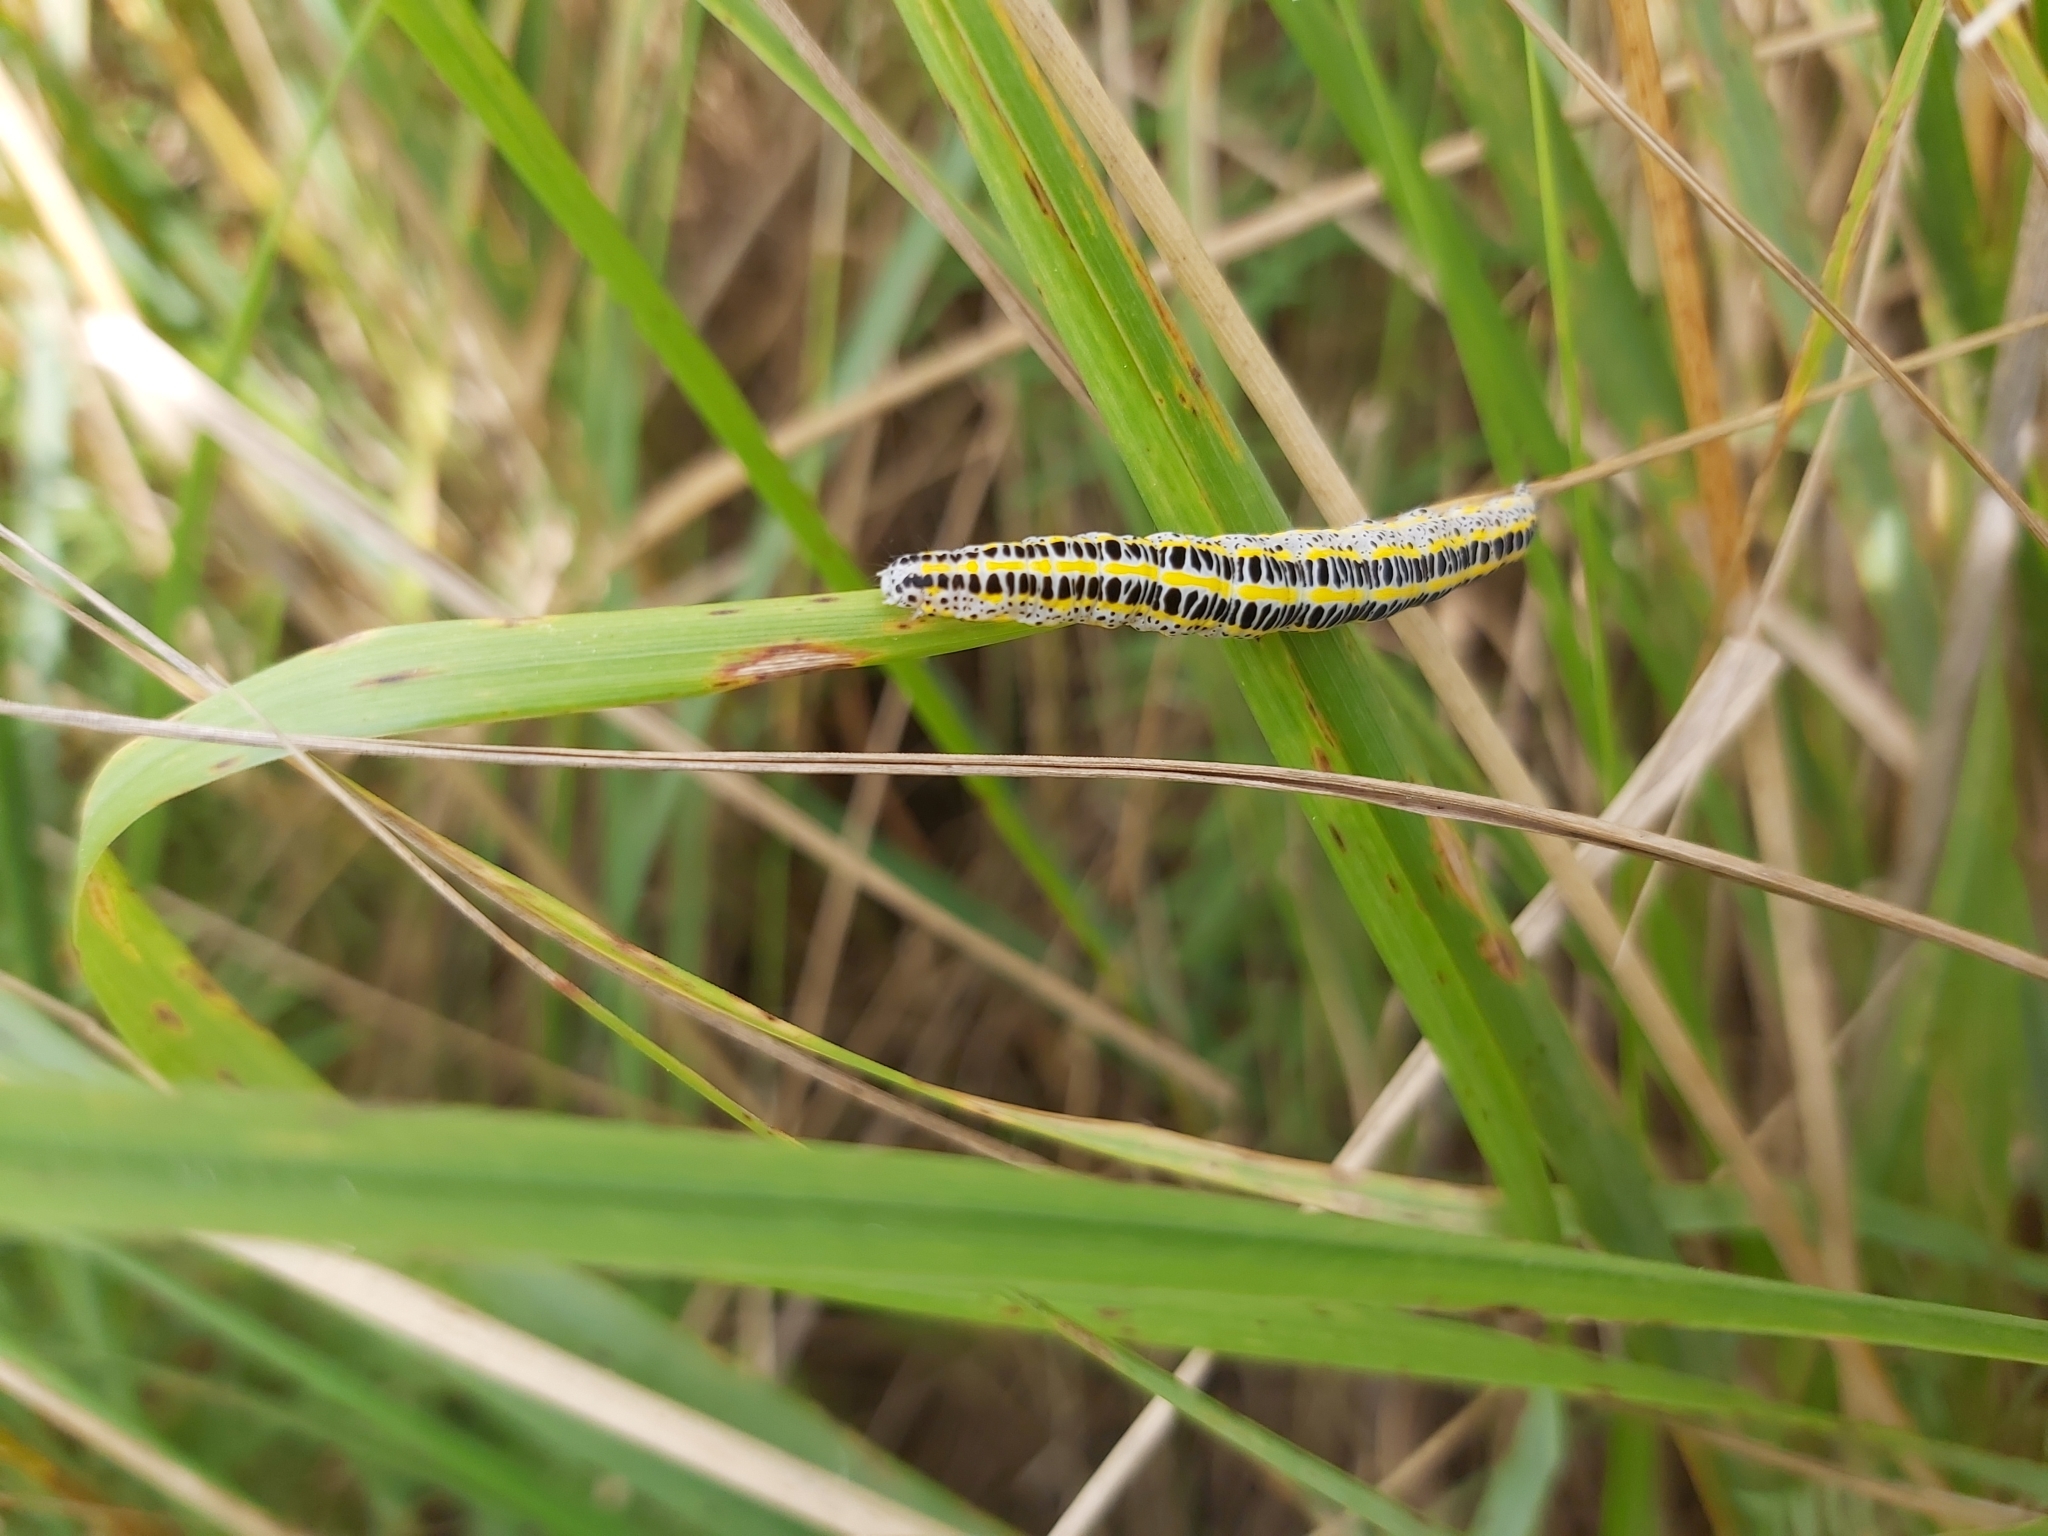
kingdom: Animalia
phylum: Arthropoda
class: Insecta
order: Lepidoptera
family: Noctuidae
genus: Calophasia
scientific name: Calophasia lunula
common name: Toadflax brocade
